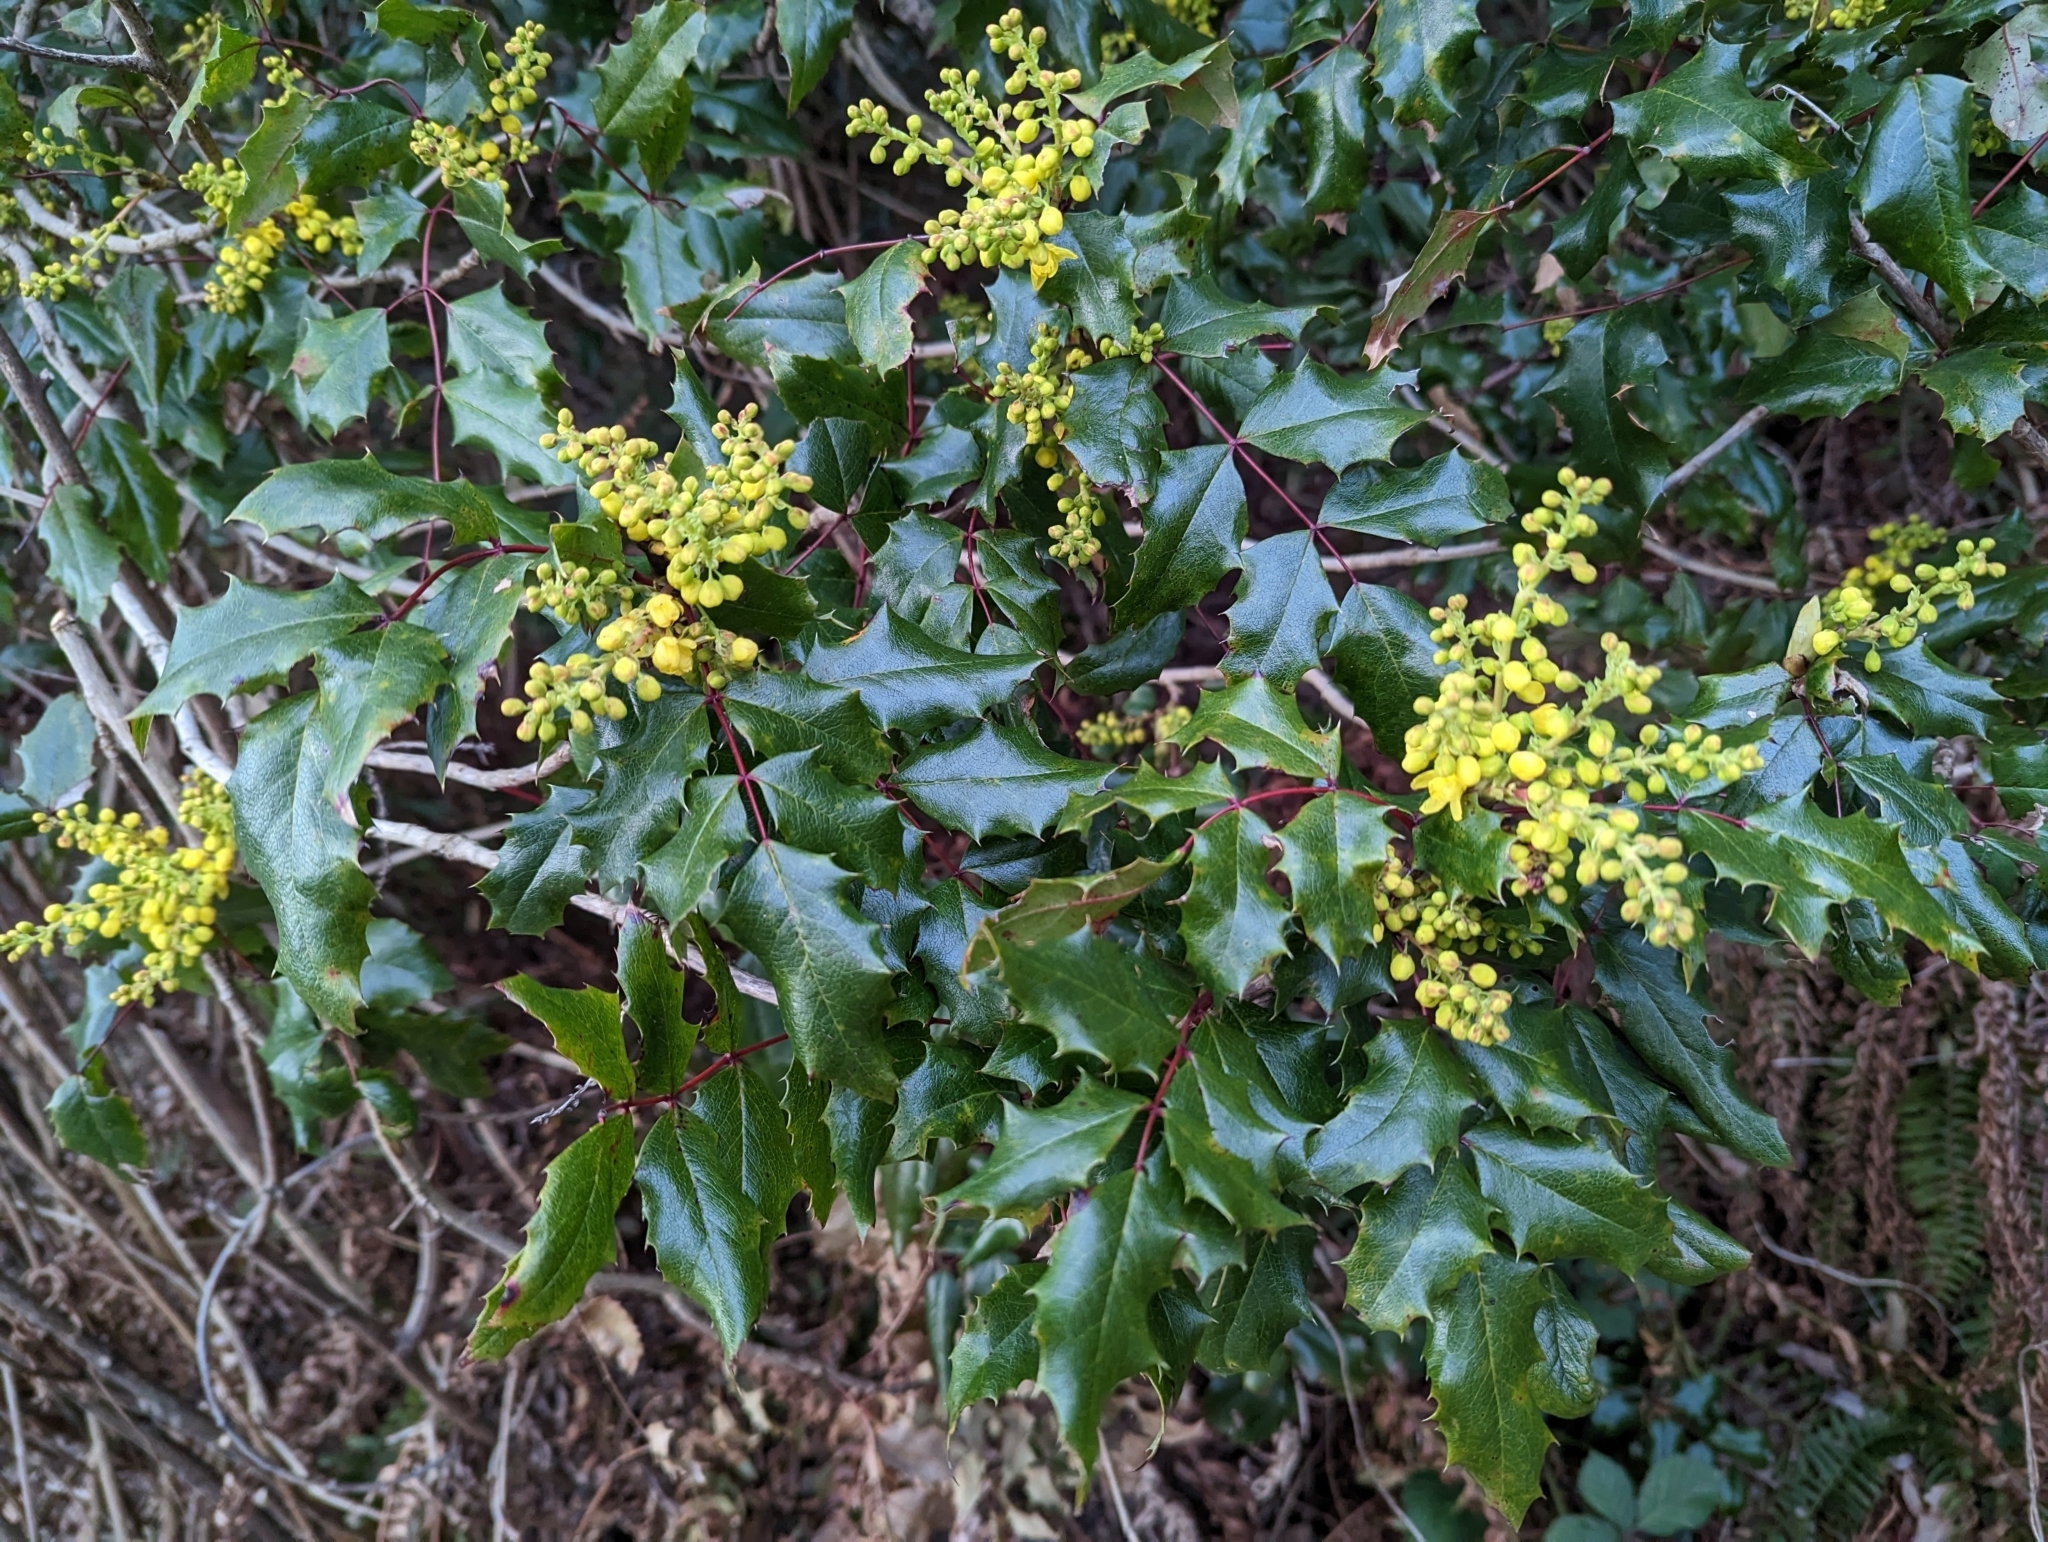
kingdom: Plantae
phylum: Tracheophyta
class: Magnoliopsida
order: Ranunculales
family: Berberidaceae
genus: Mahonia
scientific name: Mahonia aquifolium
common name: Oregon-grape
